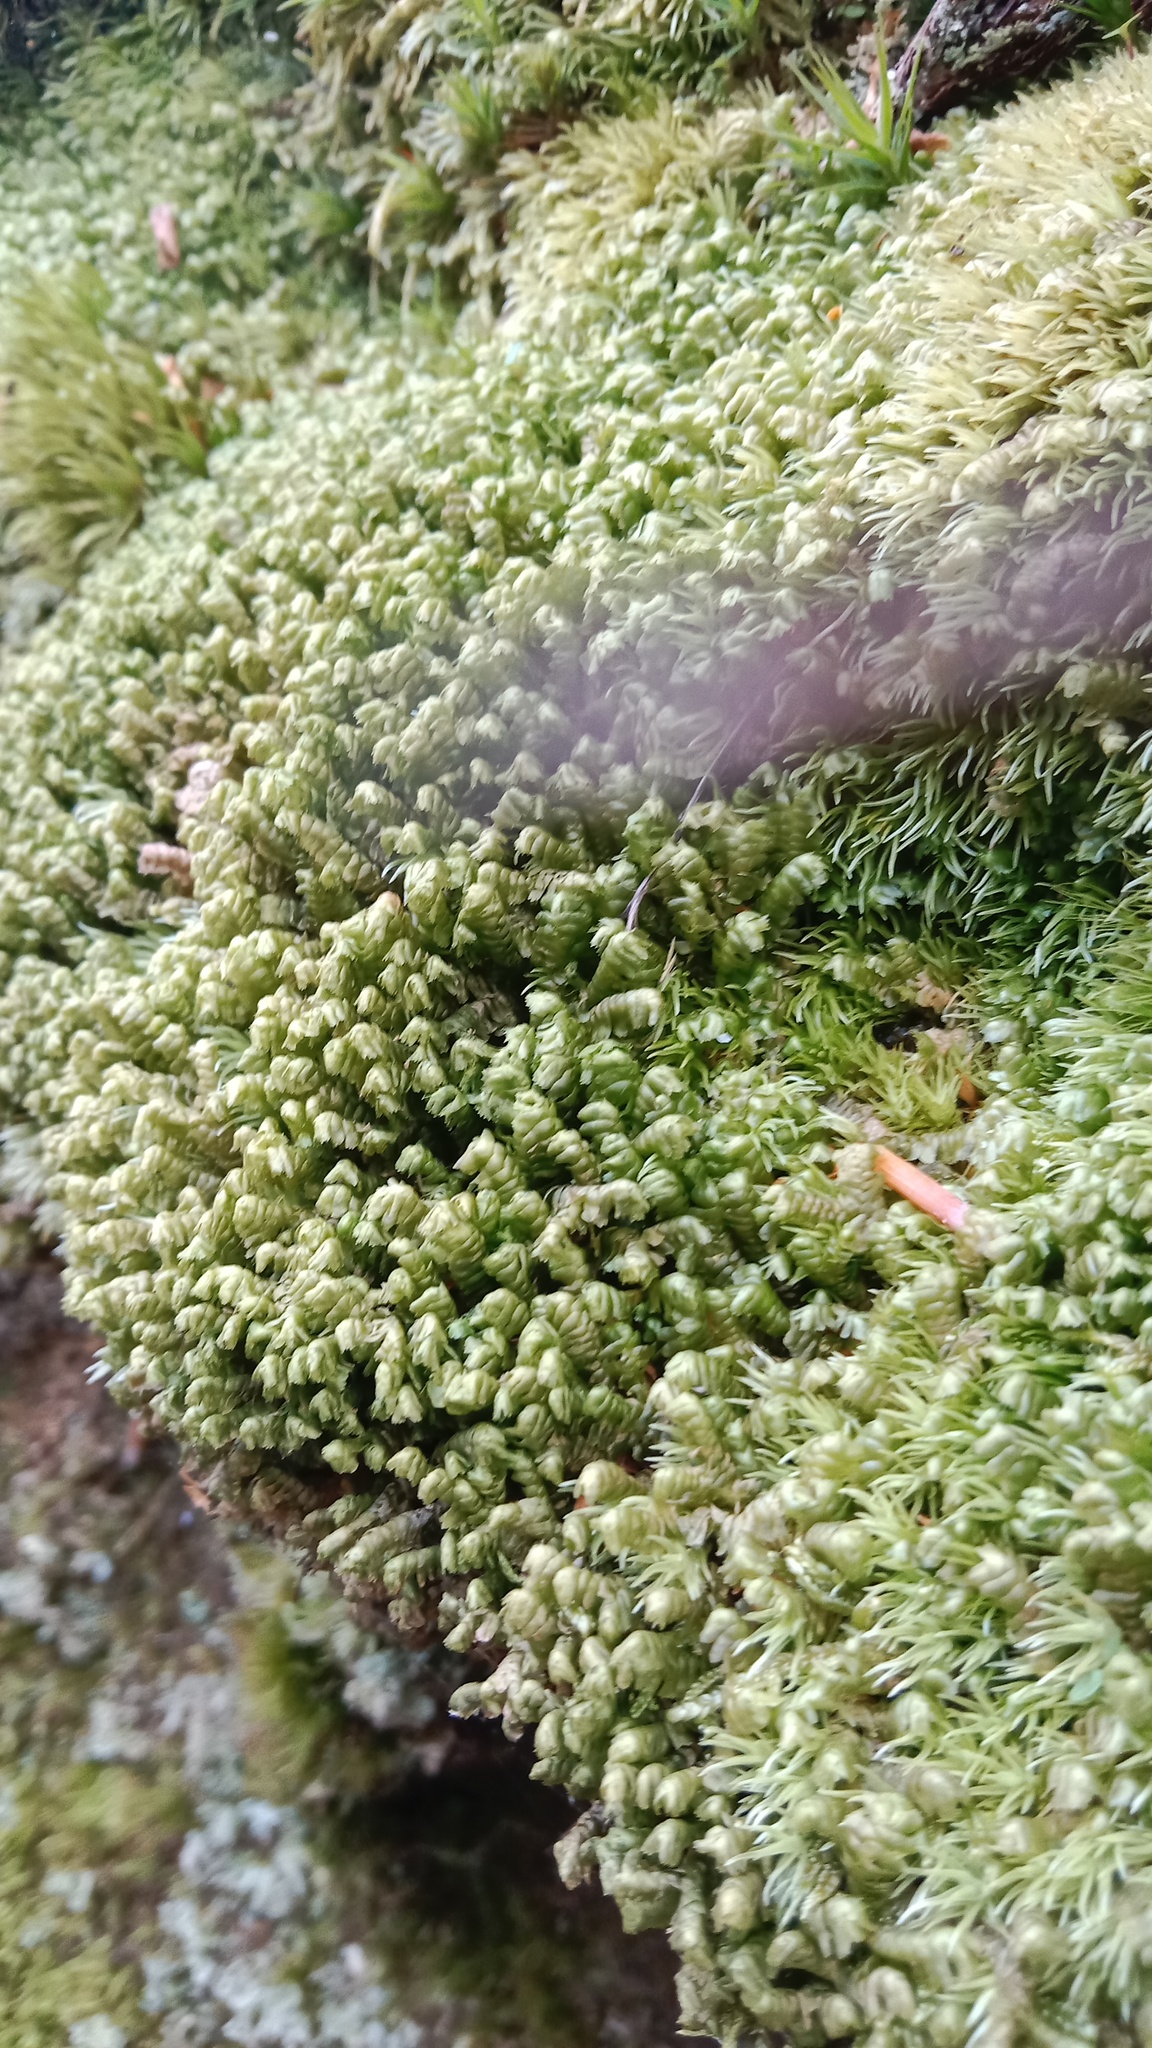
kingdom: Plantae
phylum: Marchantiophyta
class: Jungermanniopsida
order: Jungermanniales
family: Lepidoziaceae
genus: Bazzania
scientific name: Bazzania trilobata
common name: Three-lobed whipwort
